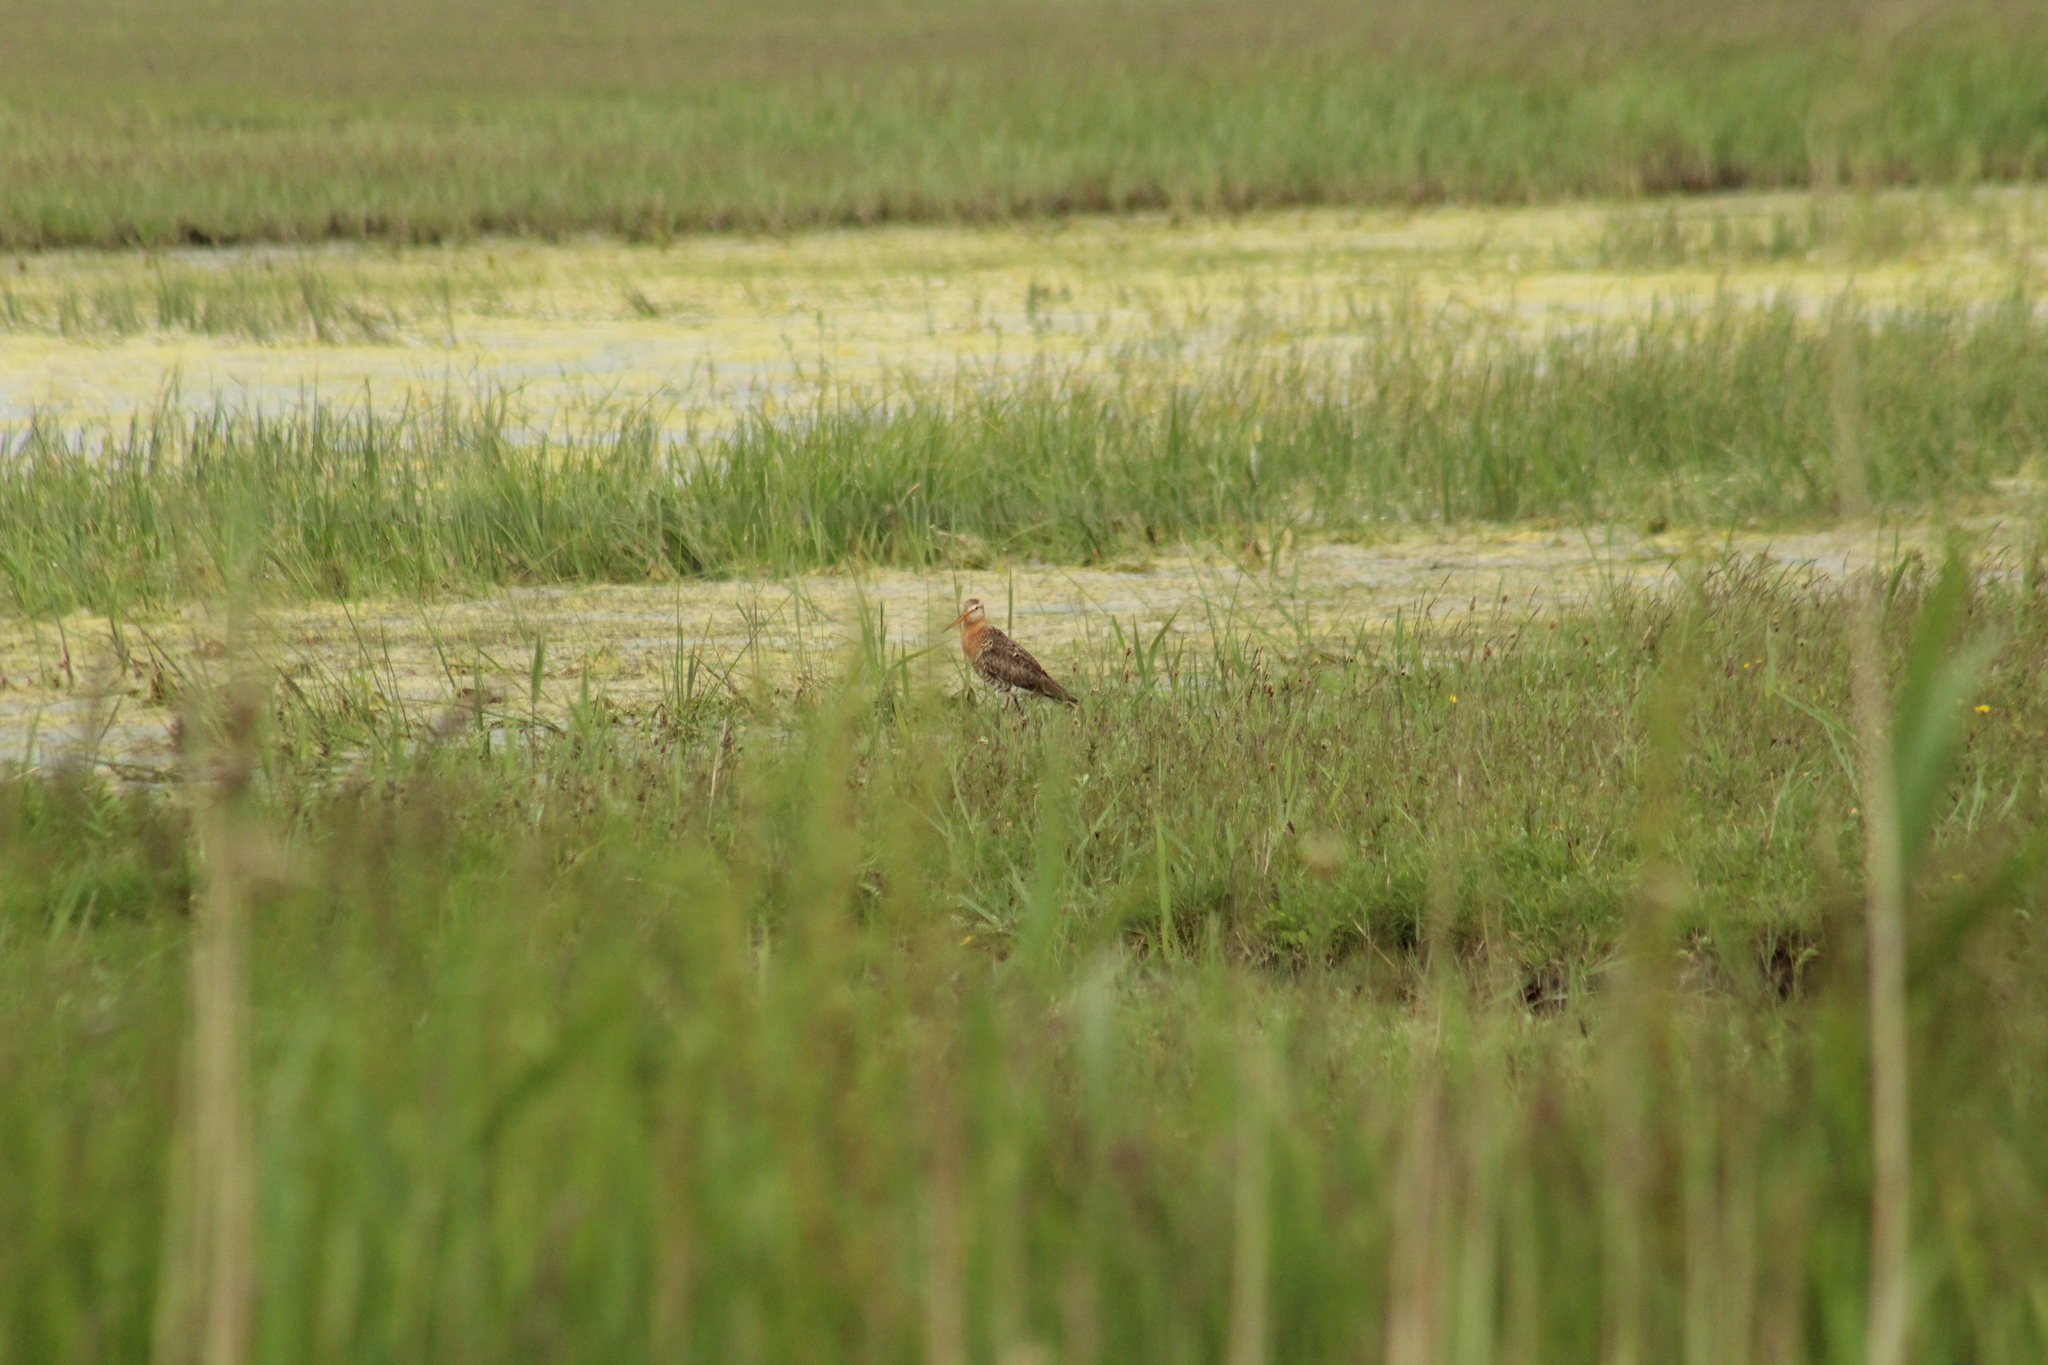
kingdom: Animalia
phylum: Chordata
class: Aves
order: Charadriiformes
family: Scolopacidae
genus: Limosa
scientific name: Limosa limosa
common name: Black-tailed godwit
